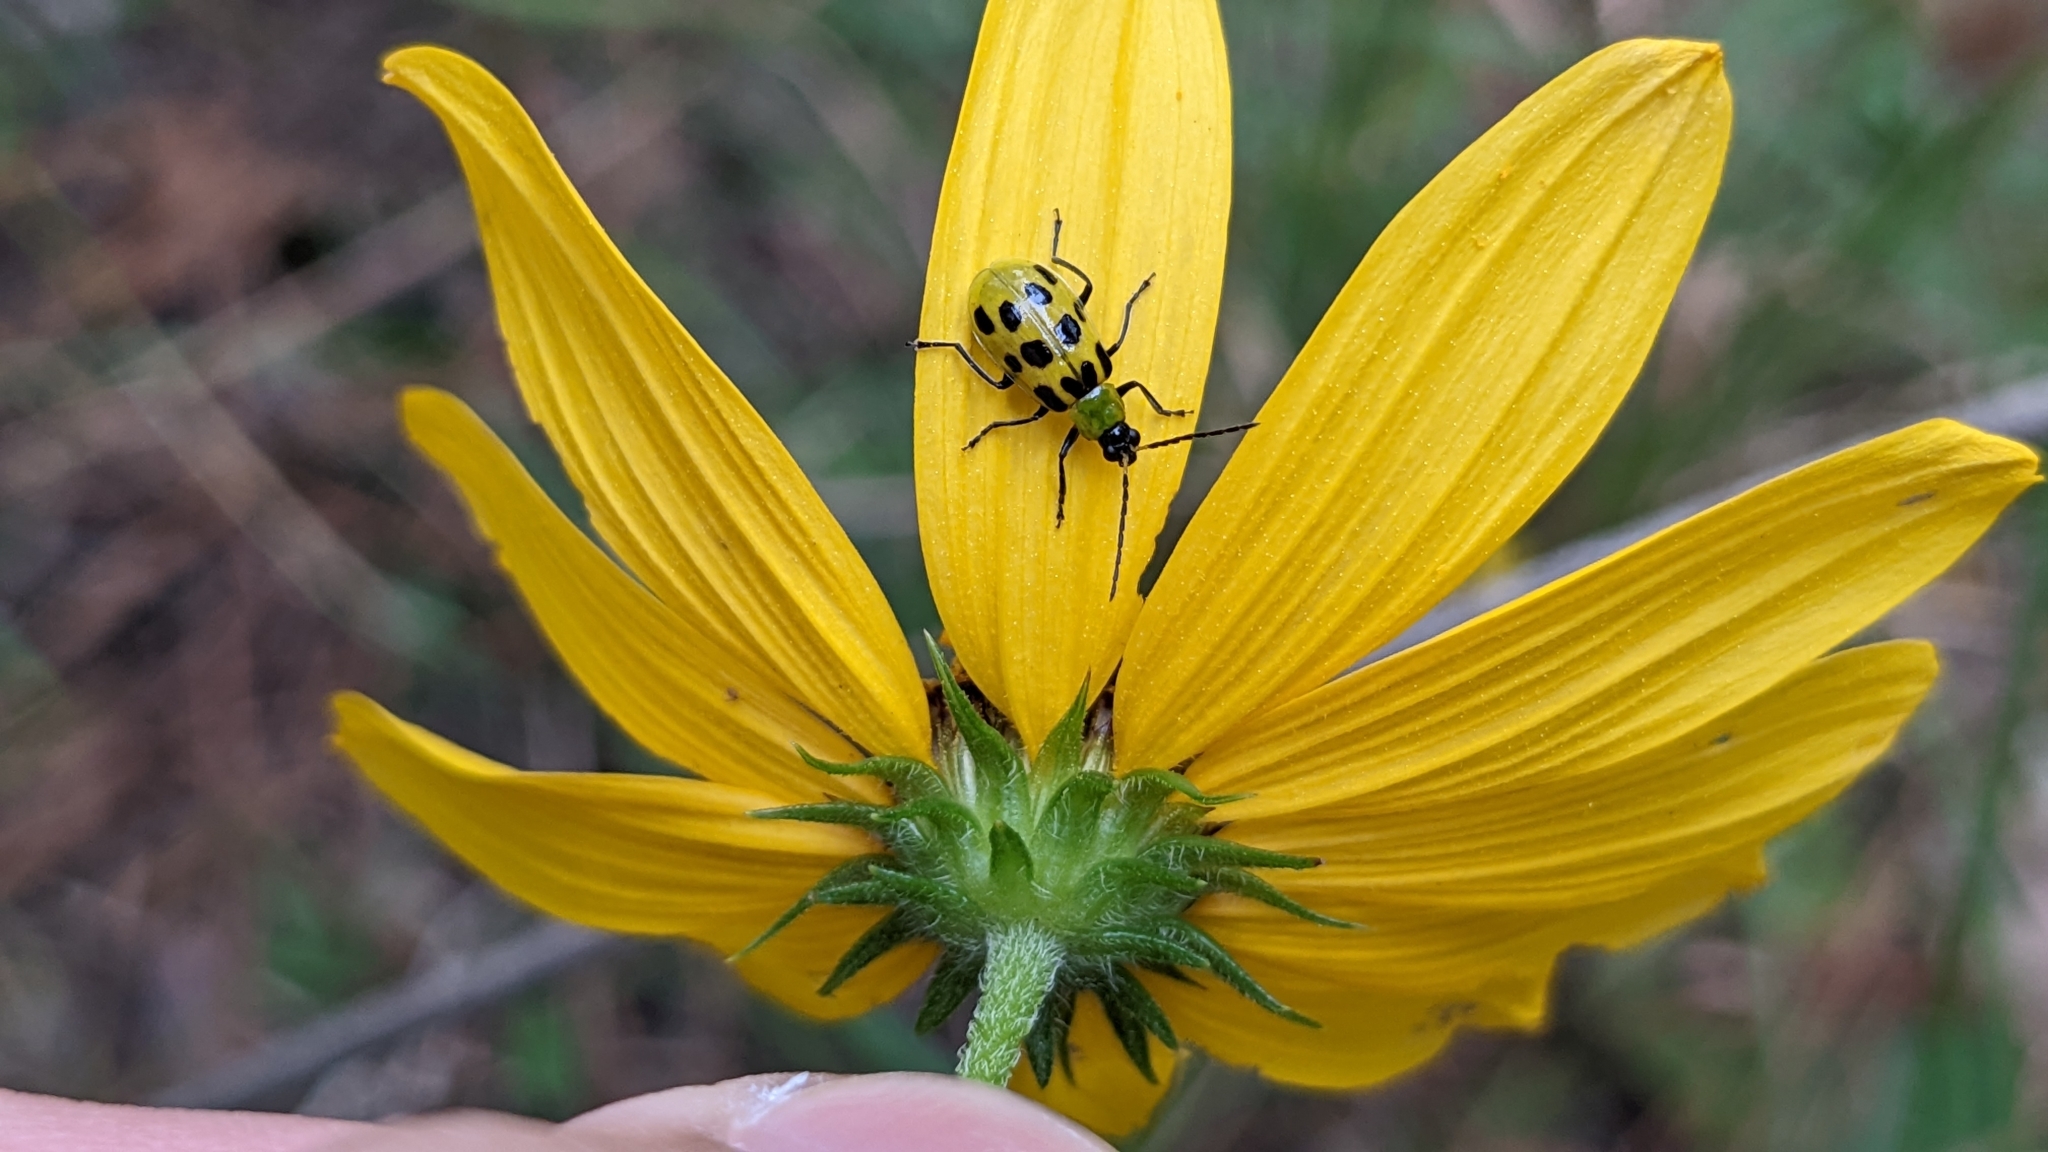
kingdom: Plantae
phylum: Tracheophyta
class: Magnoliopsida
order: Asterales
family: Asteraceae
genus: Helianthus
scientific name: Helianthus angustifolius
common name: Swamp sunflower
